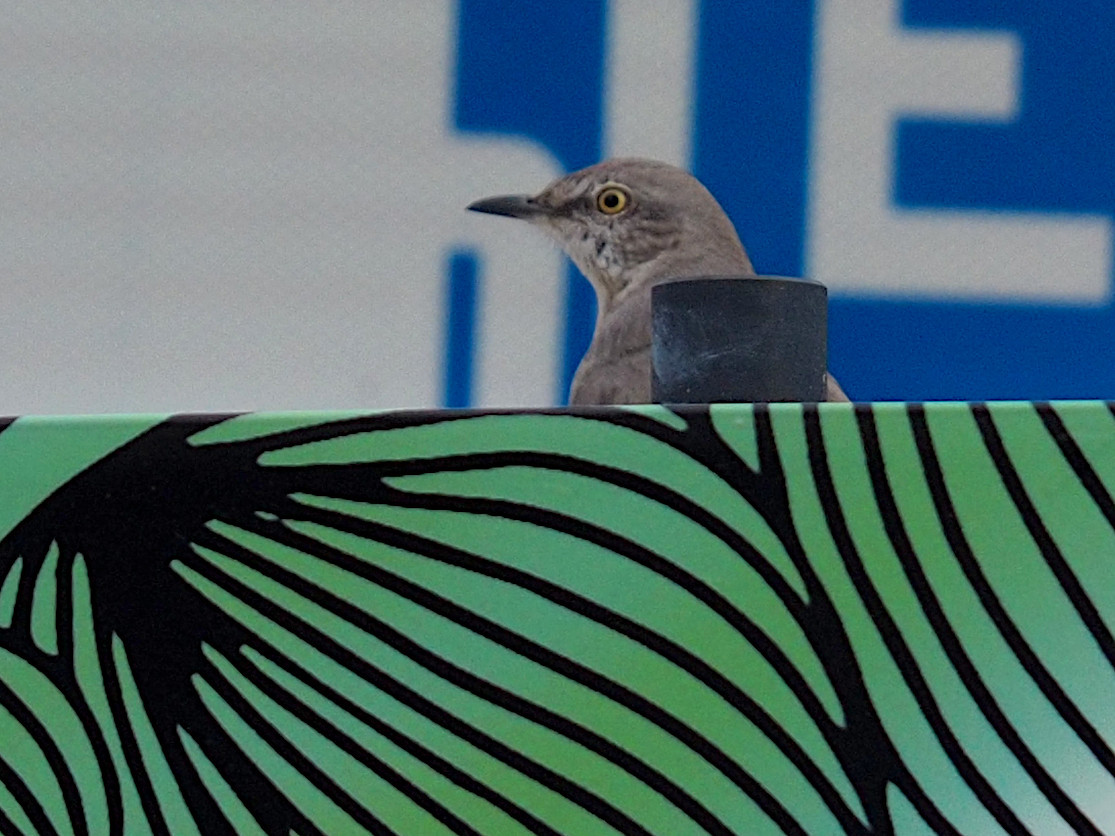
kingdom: Animalia
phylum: Chordata
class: Aves
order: Passeriformes
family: Mimidae
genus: Mimus
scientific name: Mimus polyglottos
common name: Northern mockingbird
